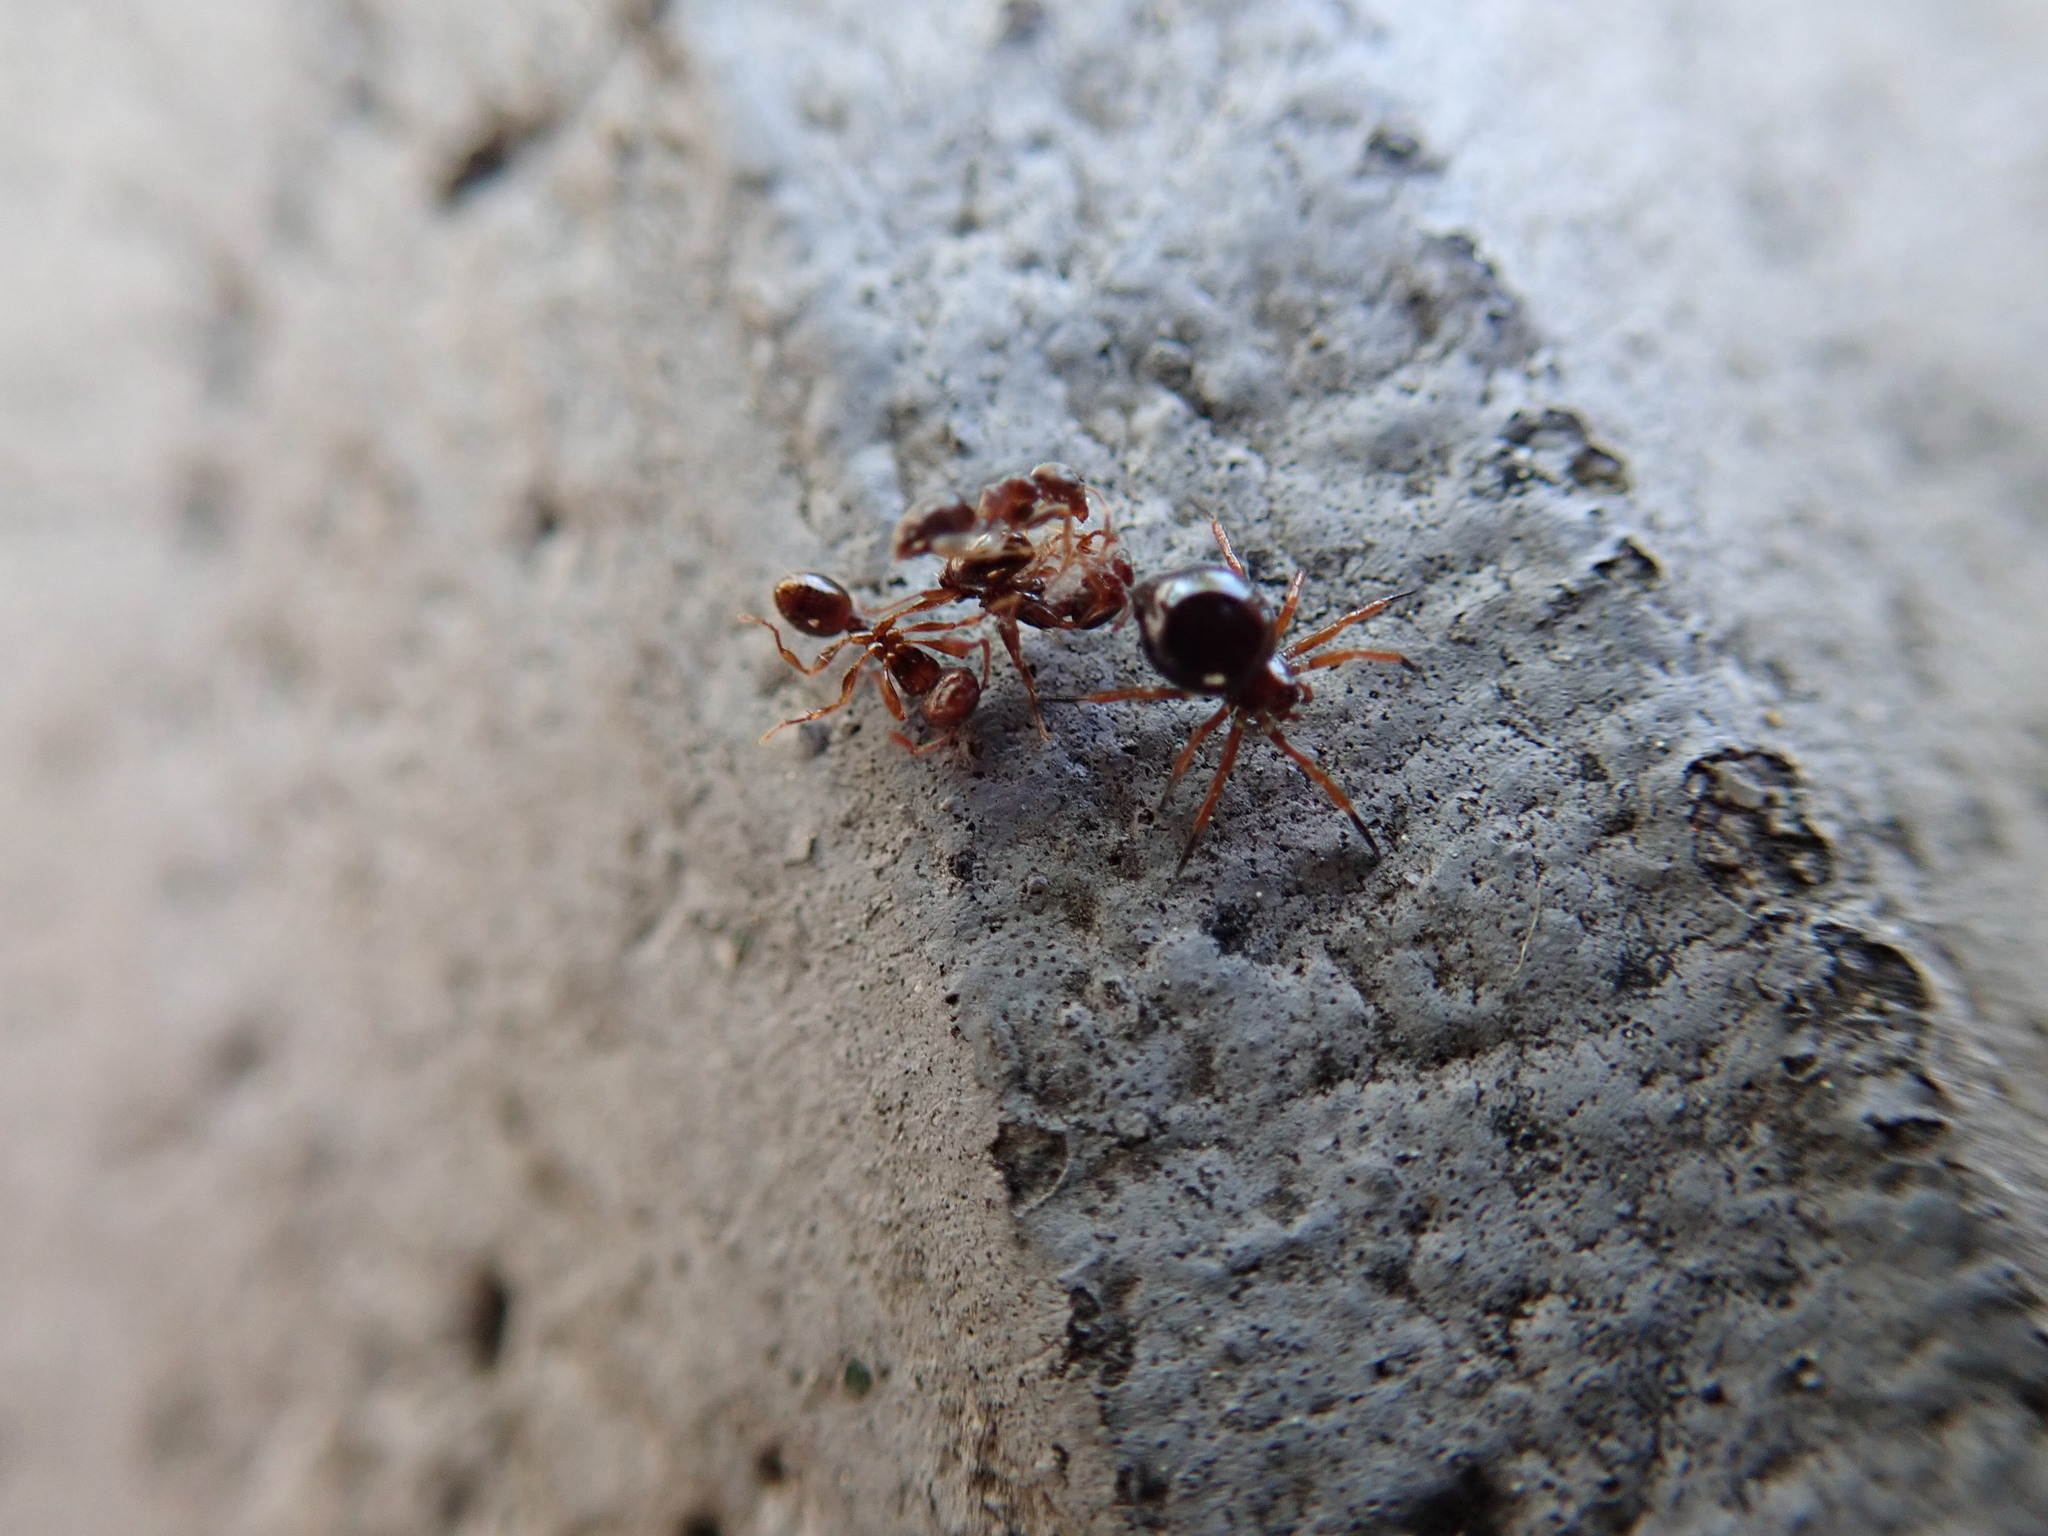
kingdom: Animalia
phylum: Arthropoda
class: Arachnida
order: Araneae
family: Theridiidae
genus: Euryopis
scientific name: Euryopis episinoides
